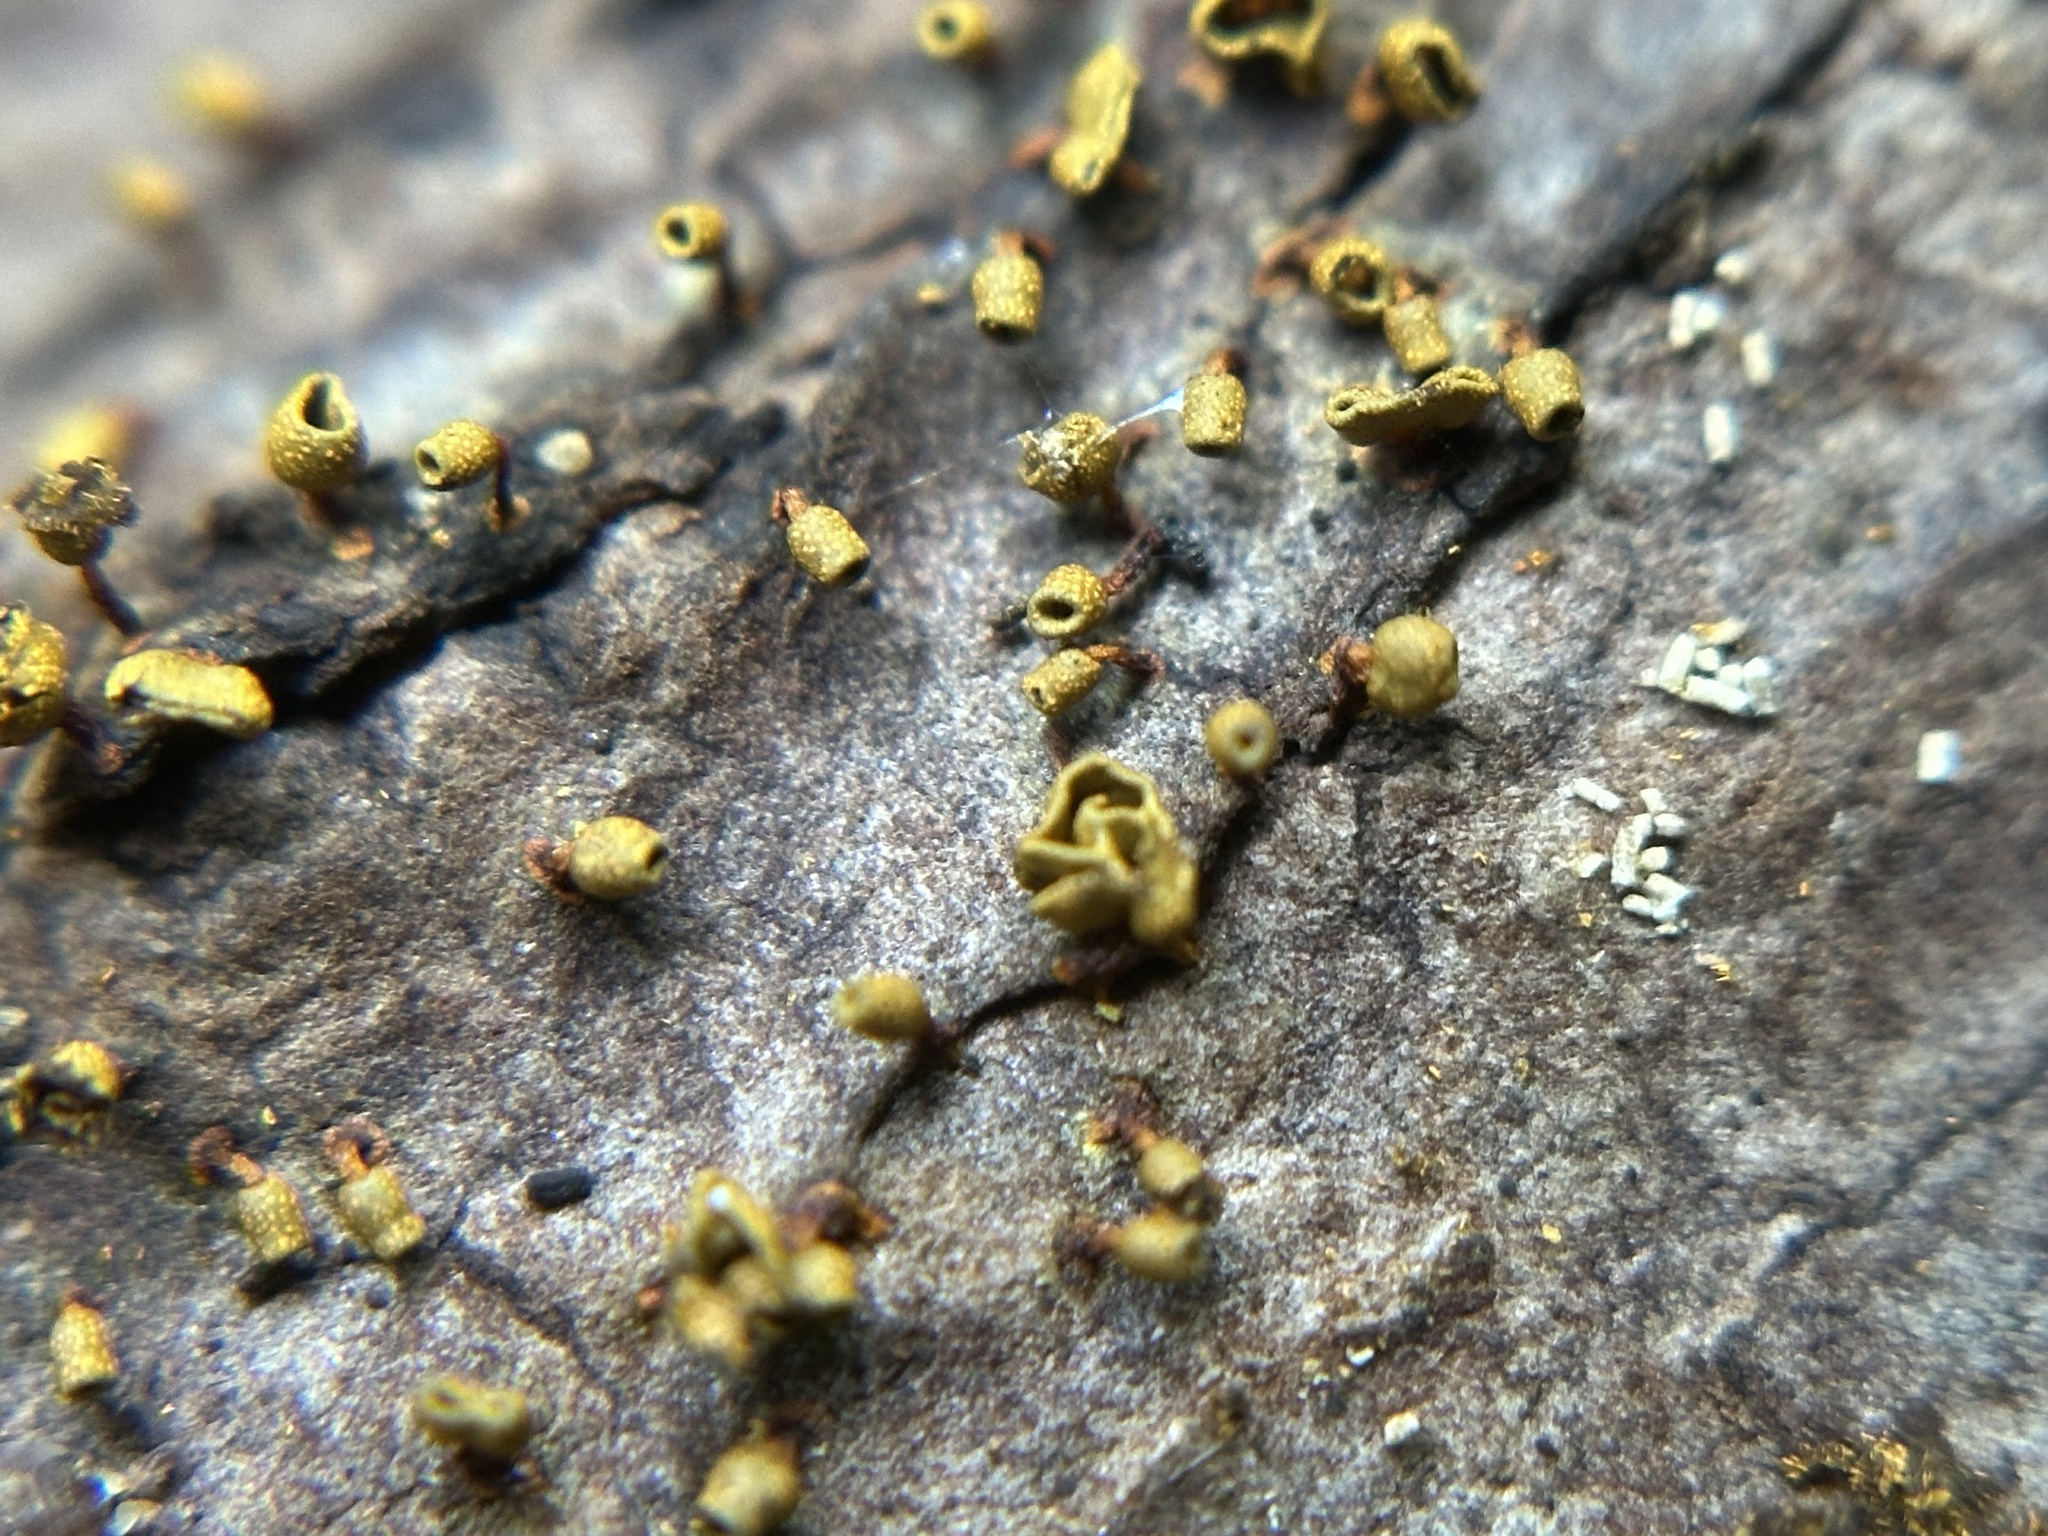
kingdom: Protozoa
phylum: Mycetozoa
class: Myxomycetes
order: Physarales
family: Physaraceae
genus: Physarella
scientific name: Physarella oblonga
